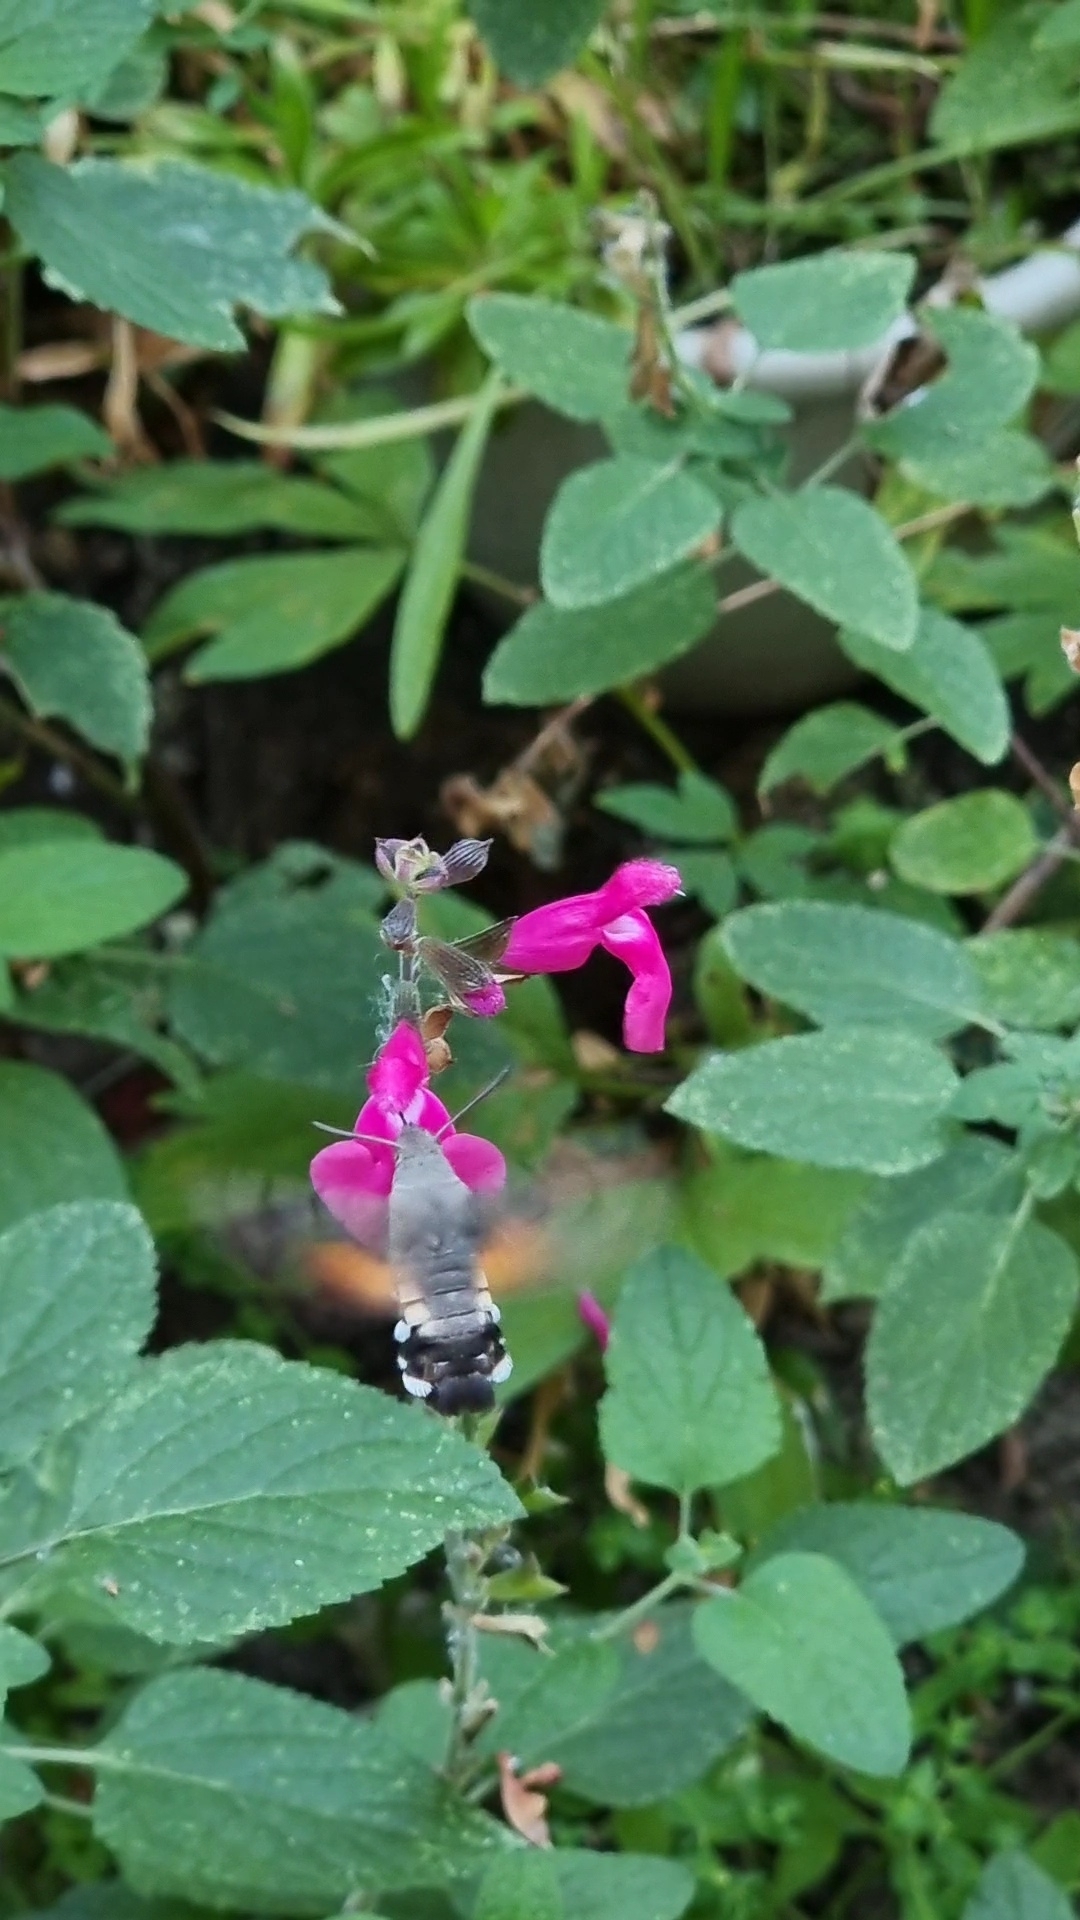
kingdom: Animalia
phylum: Arthropoda
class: Insecta
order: Lepidoptera
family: Sphingidae
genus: Macroglossum
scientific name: Macroglossum stellatarum
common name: Humming-bird hawk-moth
